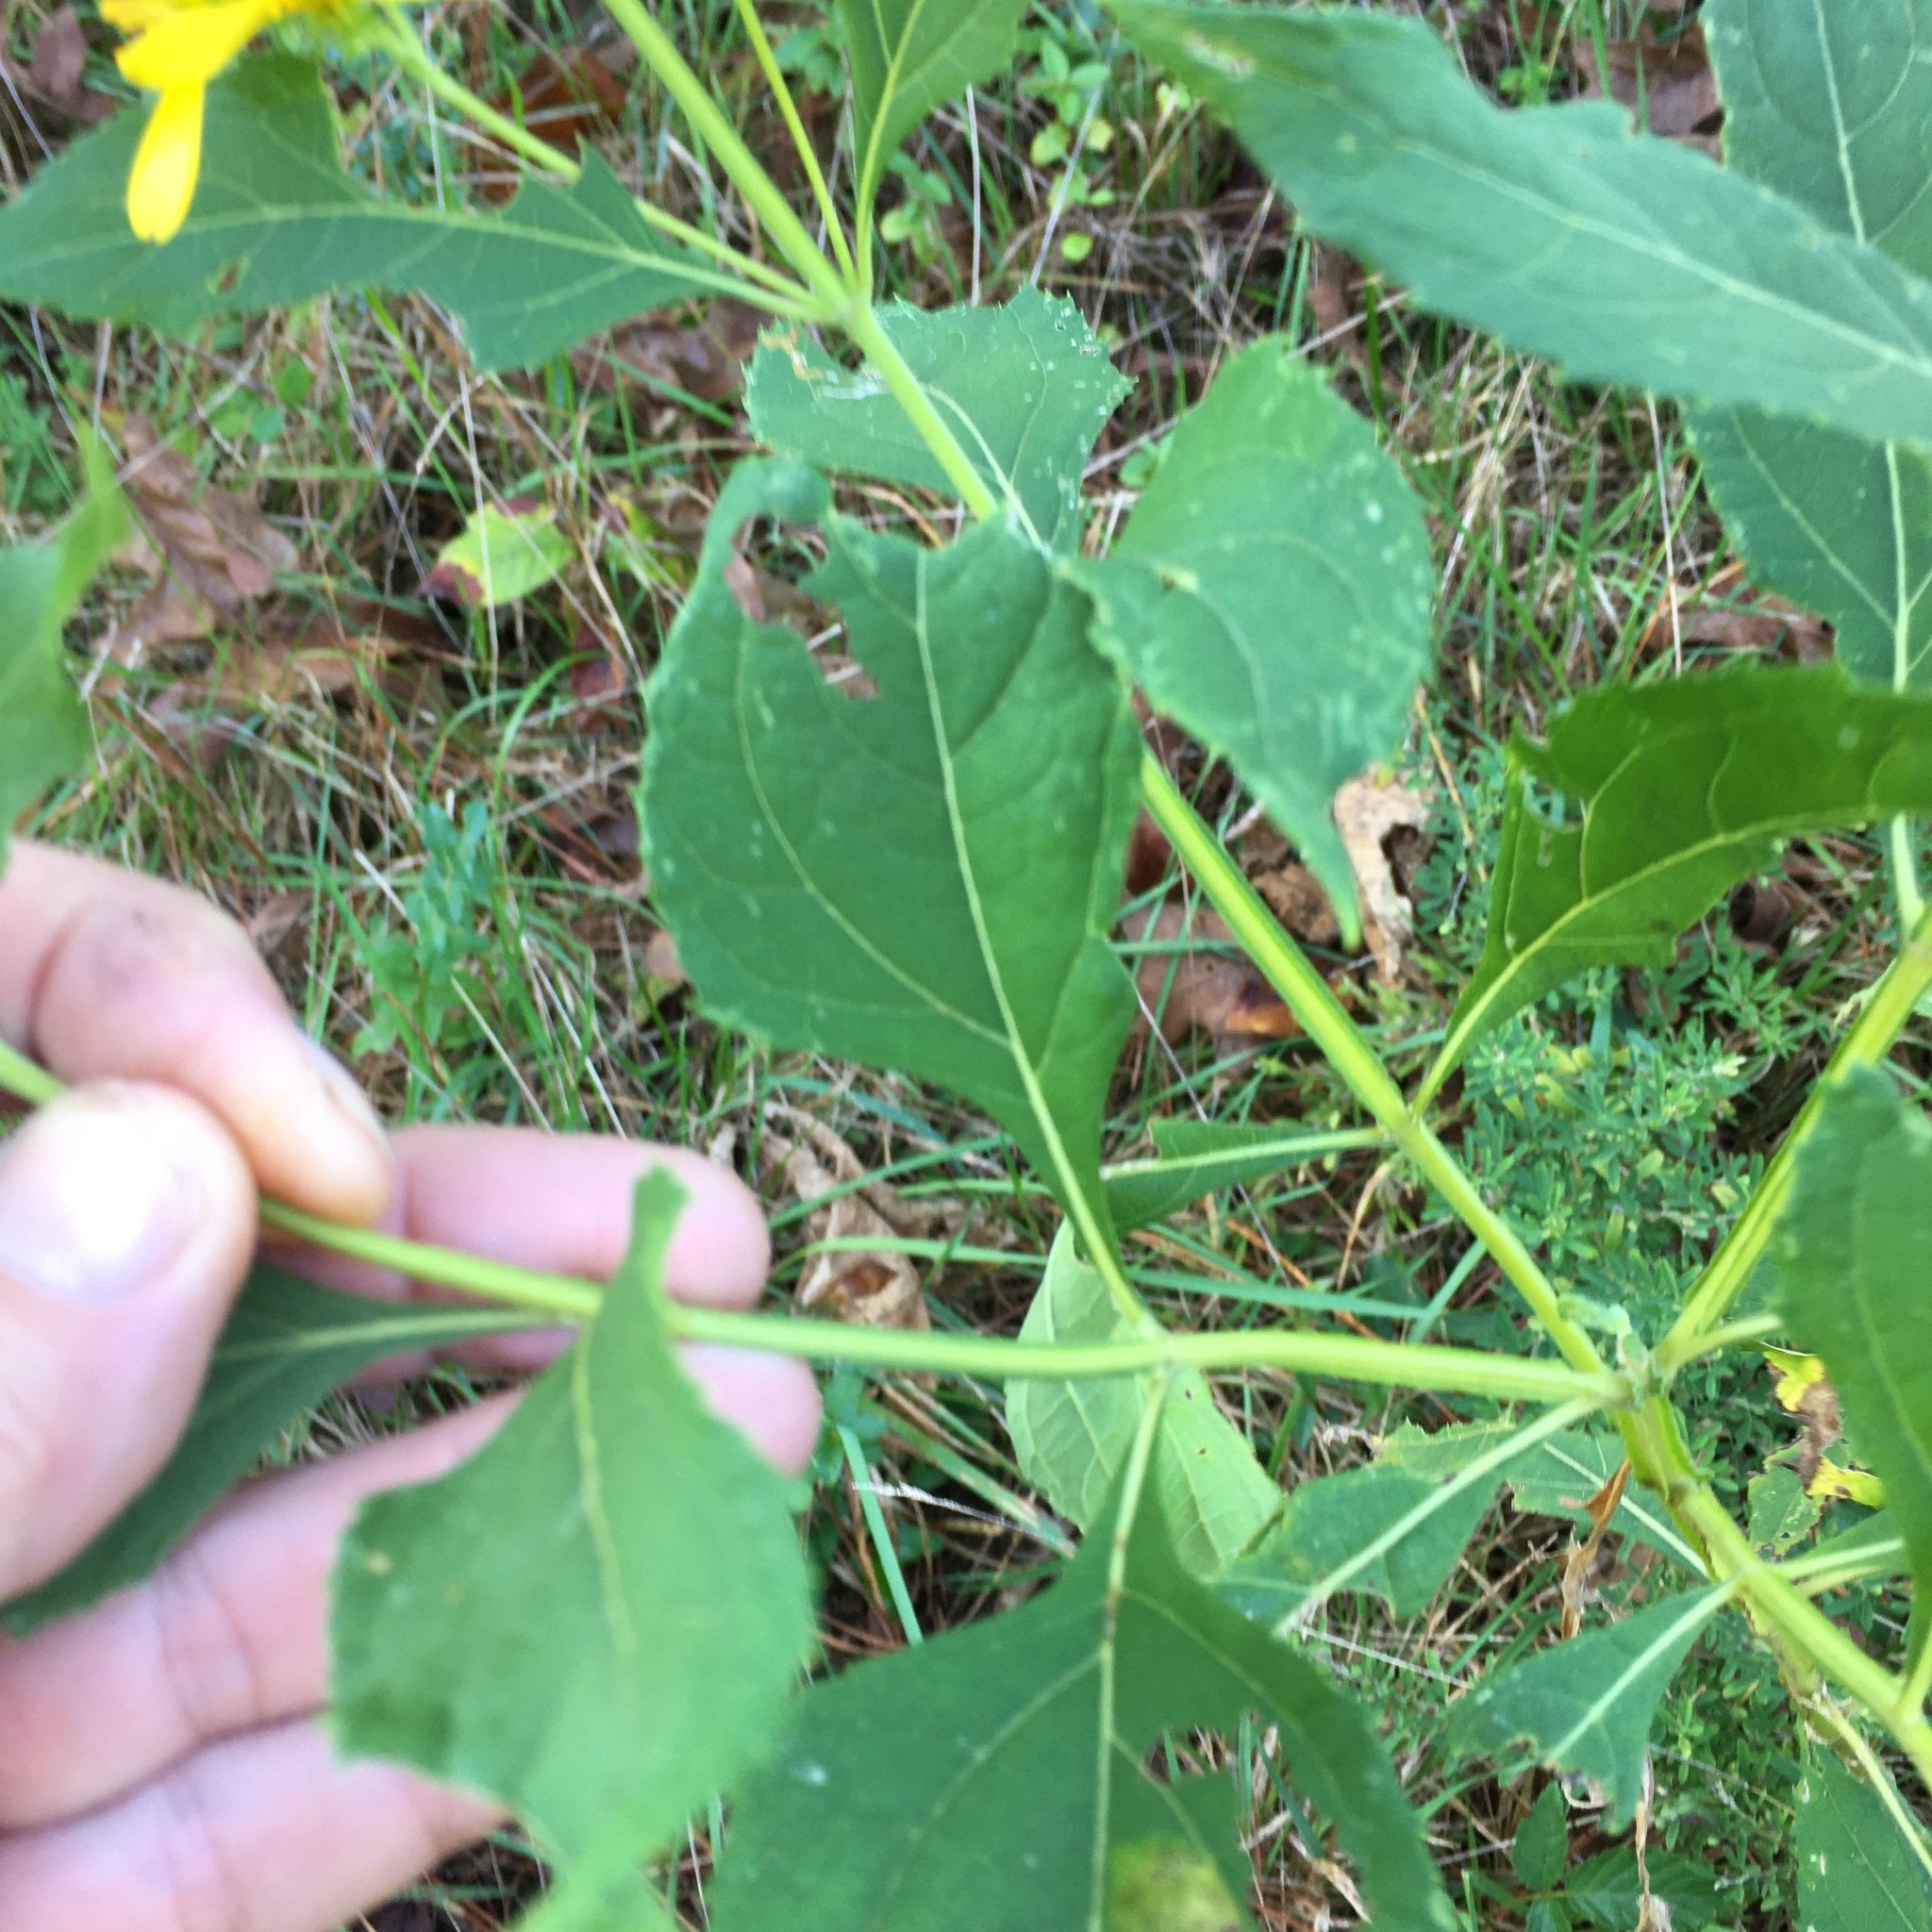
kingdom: Plantae
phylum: Tracheophyta
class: Magnoliopsida
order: Asterales
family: Asteraceae
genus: Verbesina
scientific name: Verbesina occidentalis
